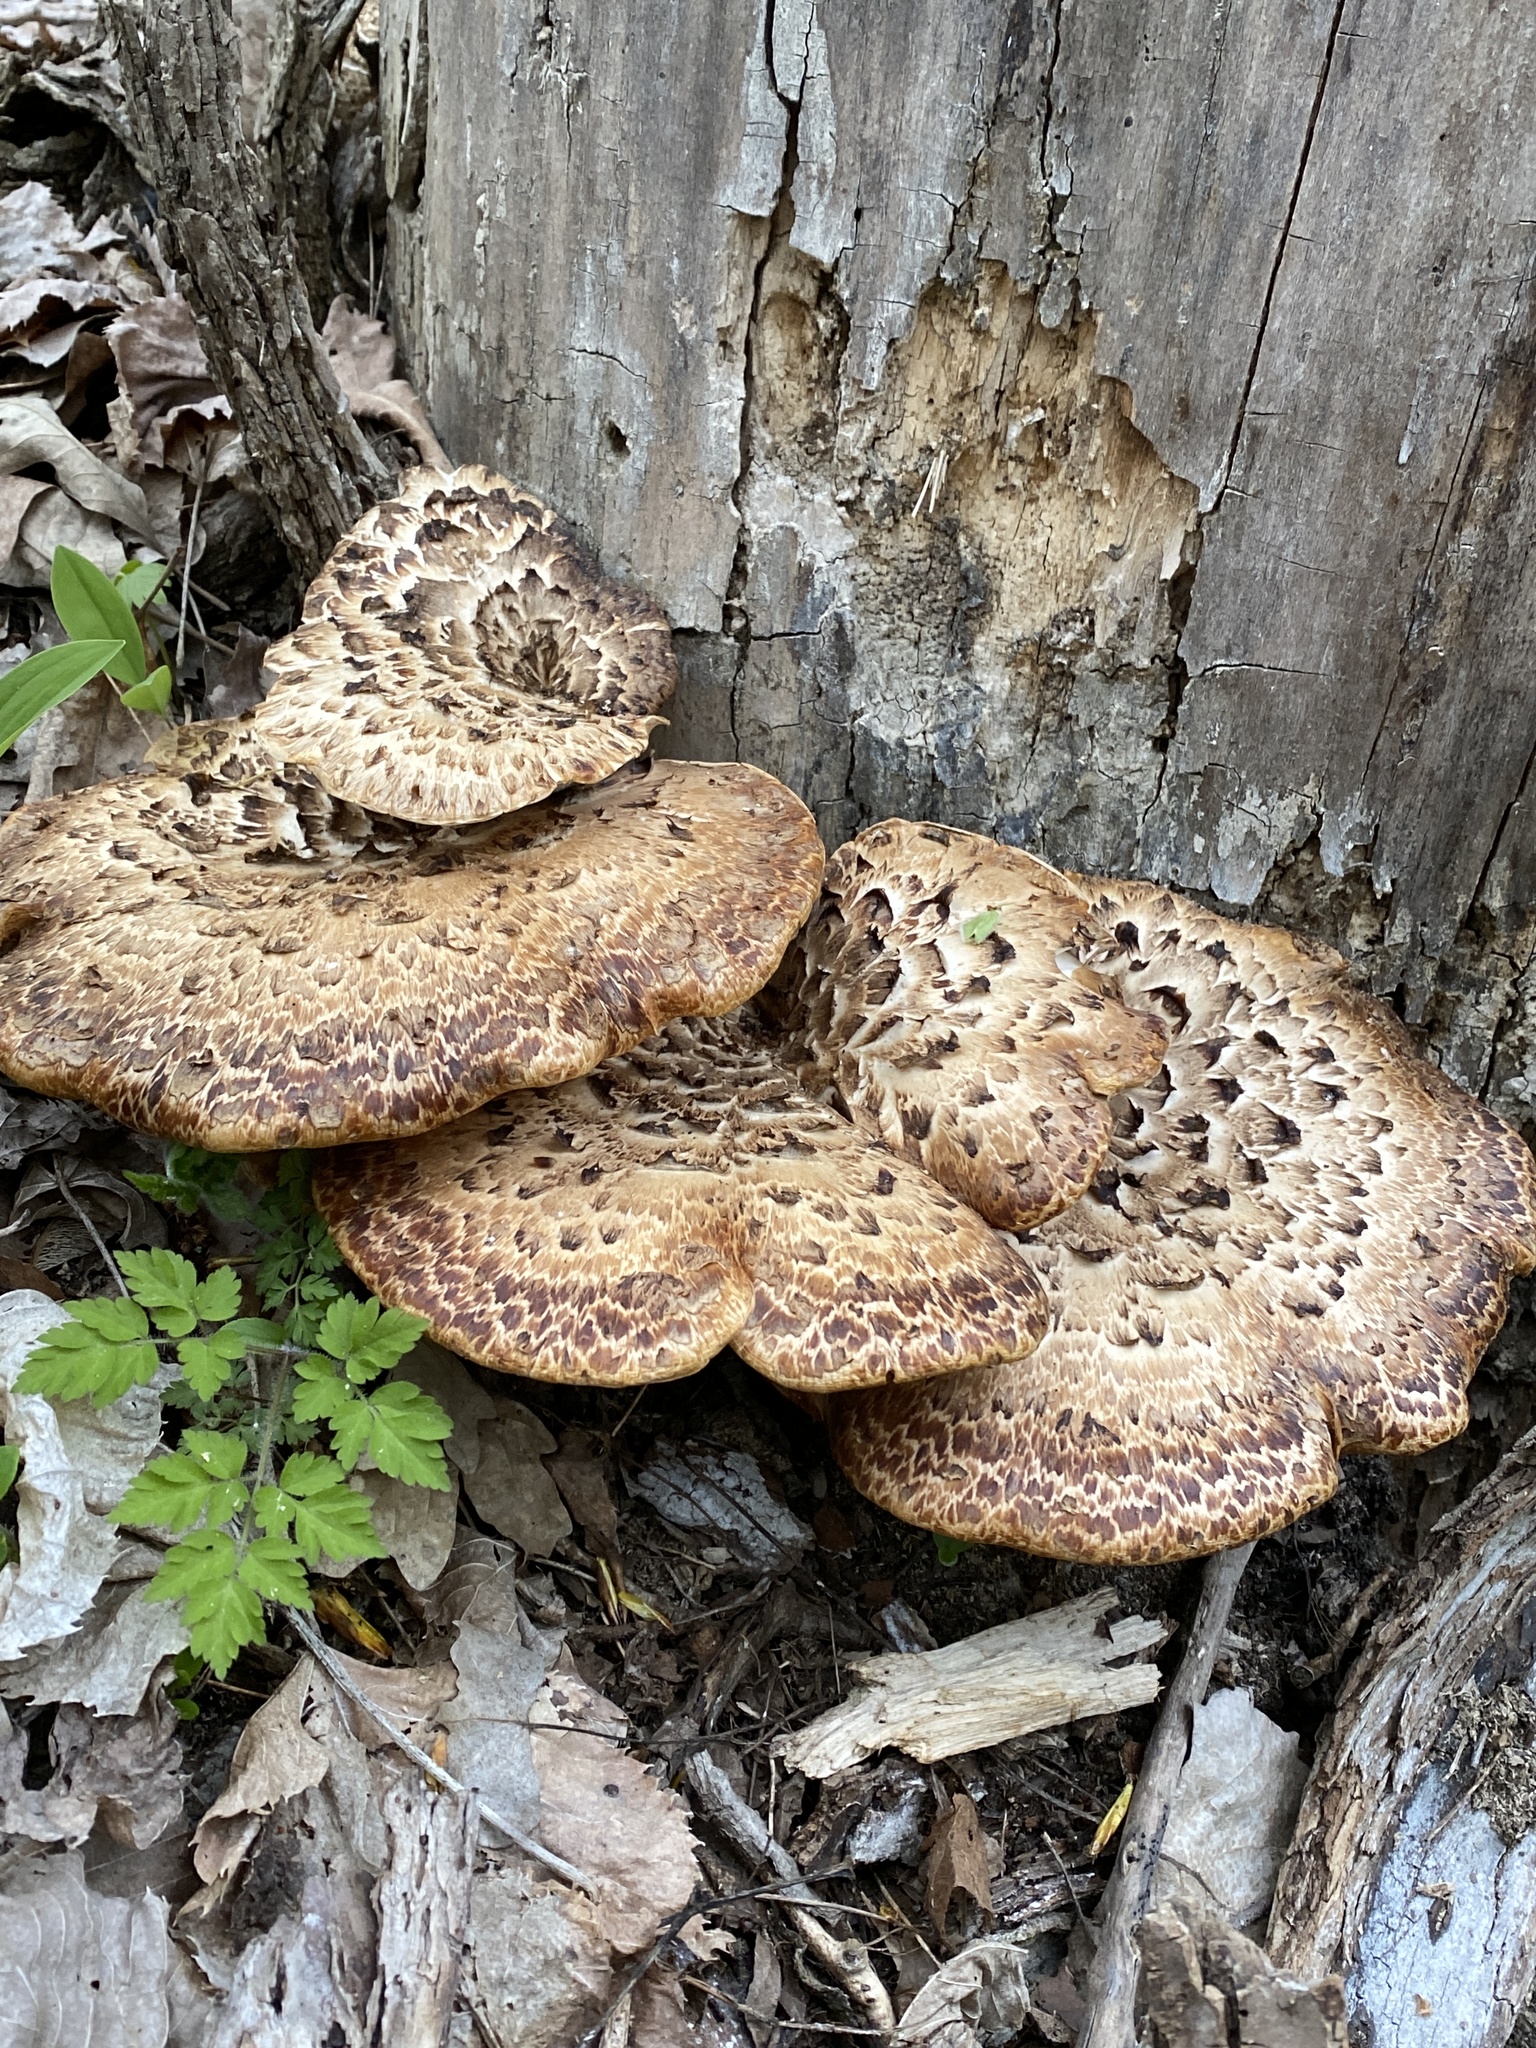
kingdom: Fungi
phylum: Basidiomycota
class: Agaricomycetes
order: Polyporales
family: Polyporaceae
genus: Cerioporus
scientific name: Cerioporus squamosus
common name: Dryad's saddle
